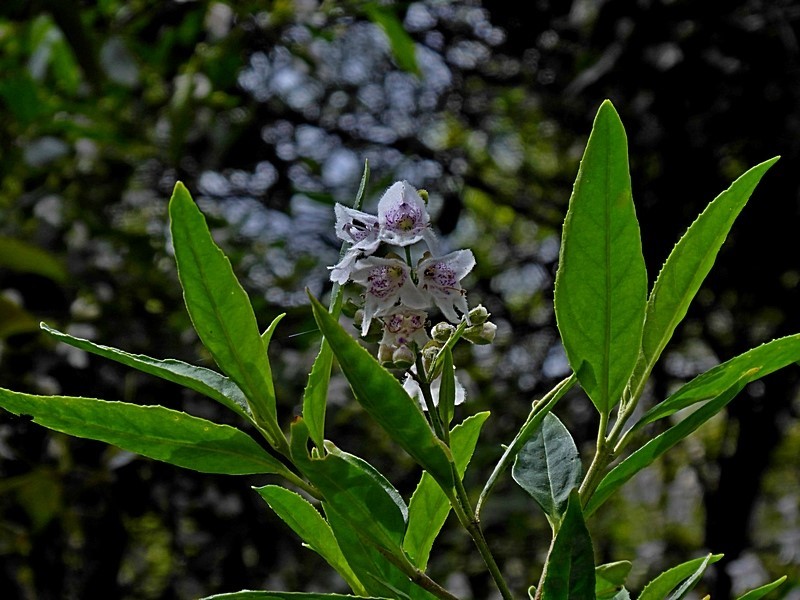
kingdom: Plantae
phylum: Tracheophyta
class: Magnoliopsida
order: Lamiales
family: Lamiaceae
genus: Prostanthera
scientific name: Prostanthera lasianthos
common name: Mountain-lilac
